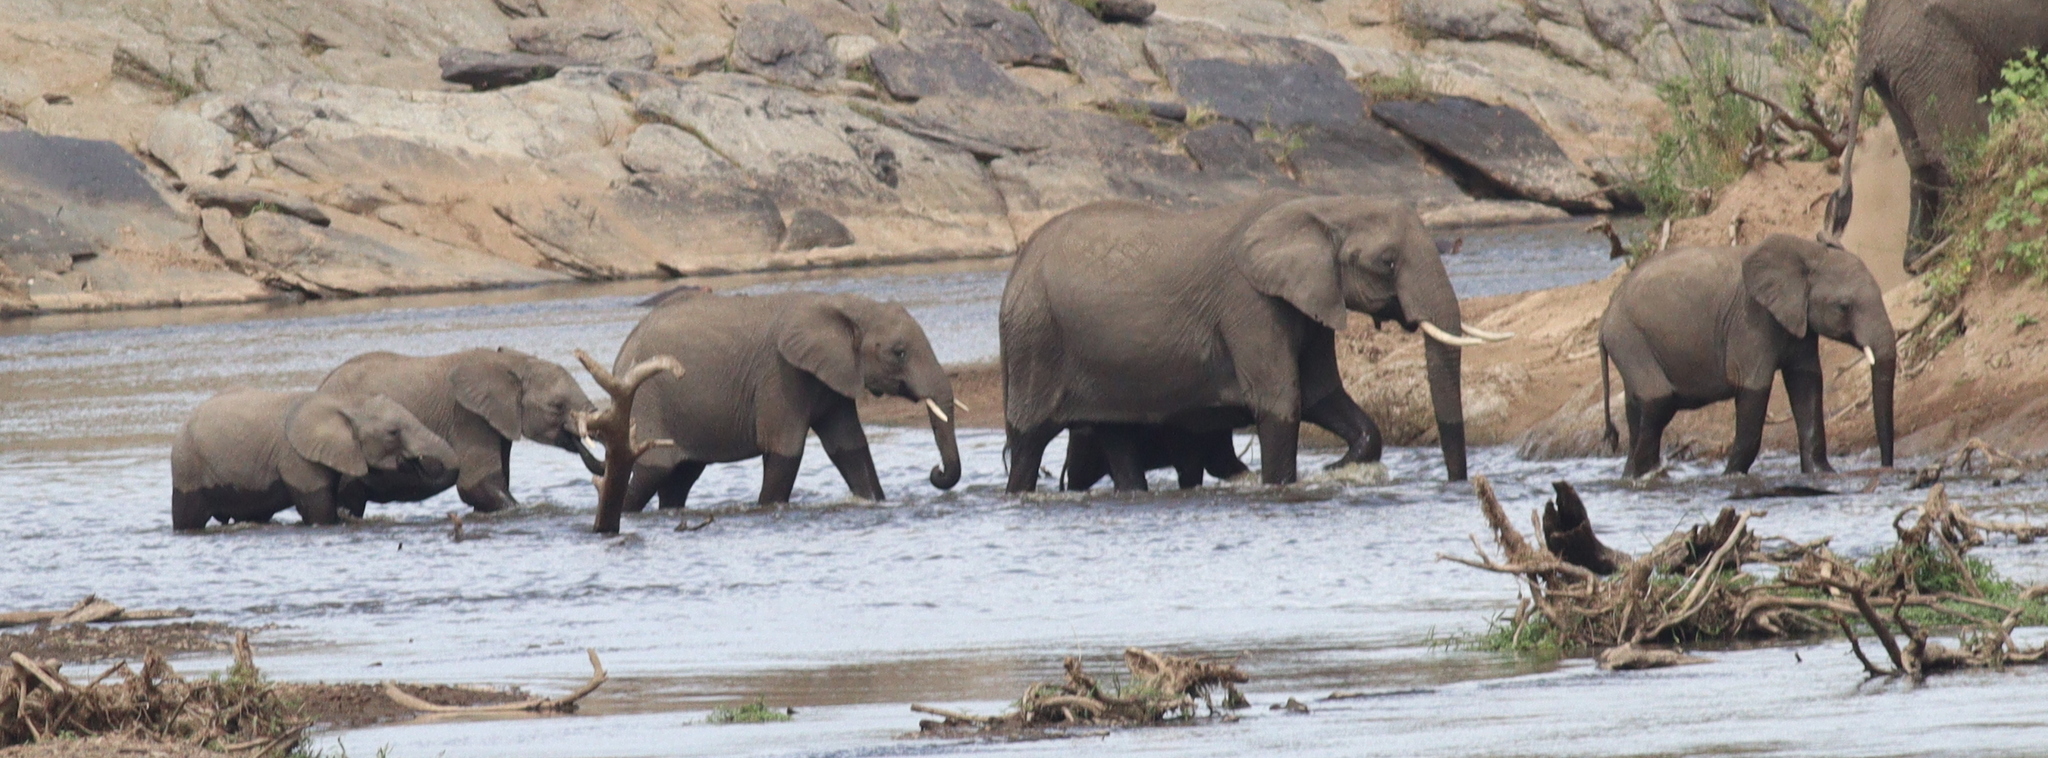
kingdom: Animalia
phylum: Chordata
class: Mammalia
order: Proboscidea
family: Elephantidae
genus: Loxodonta
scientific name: Loxodonta africana
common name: African elephant
